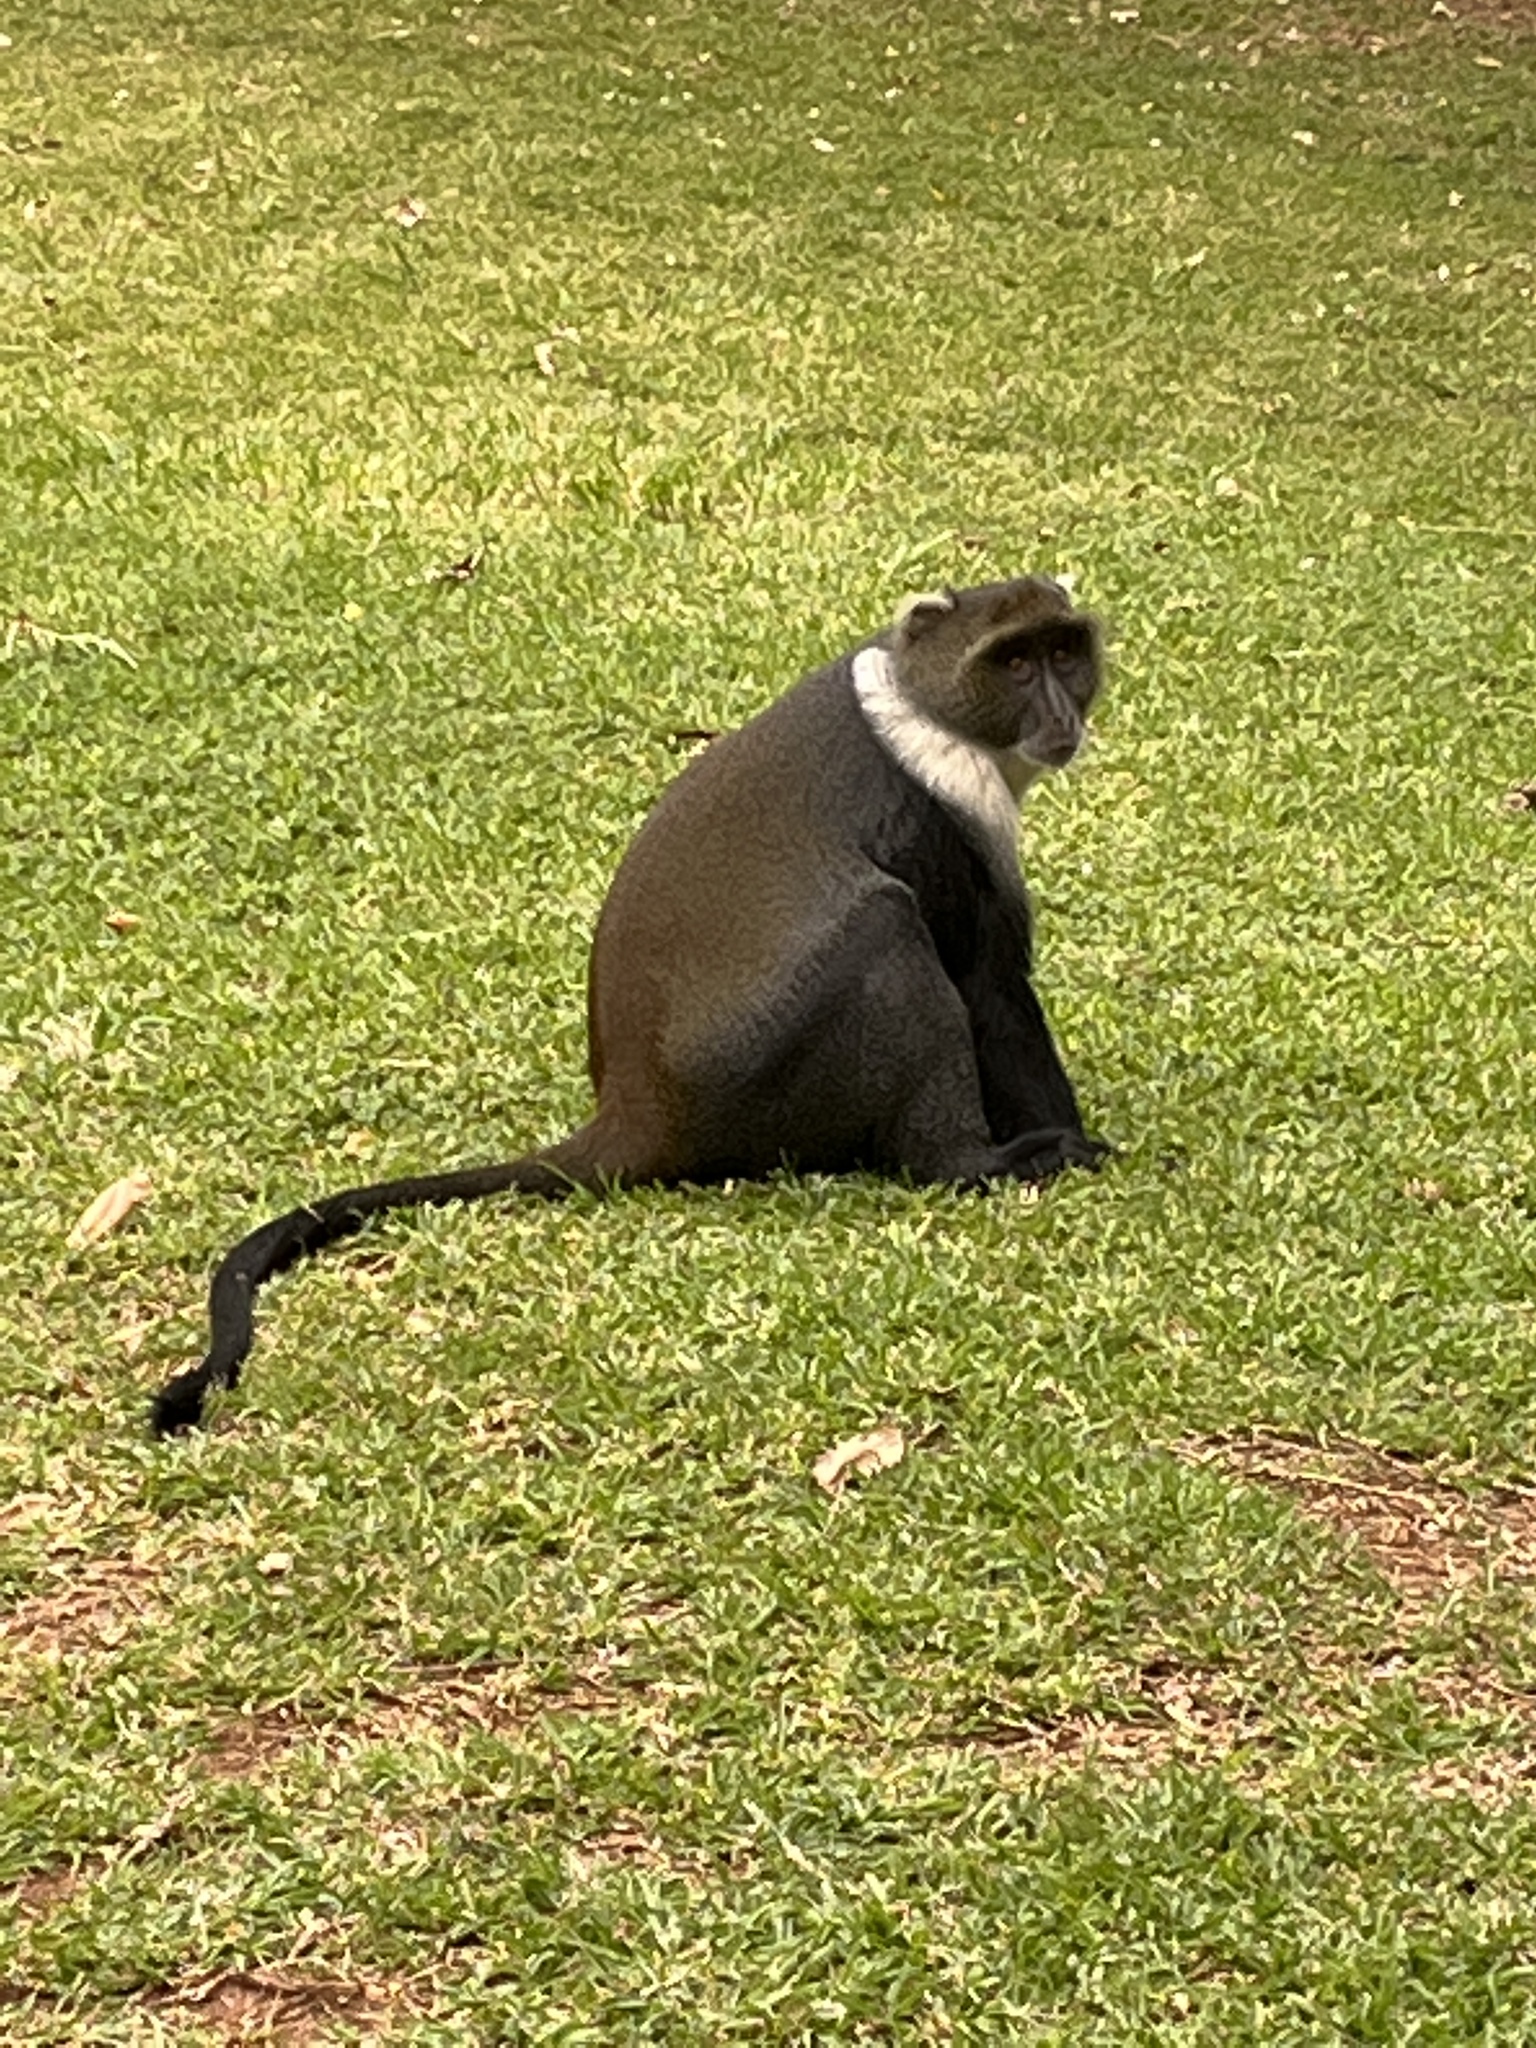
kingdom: Animalia
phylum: Chordata
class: Mammalia
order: Primates
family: Cercopithecidae
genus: Cercopithecus
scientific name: Cercopithecus mitis
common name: Blue monkey
